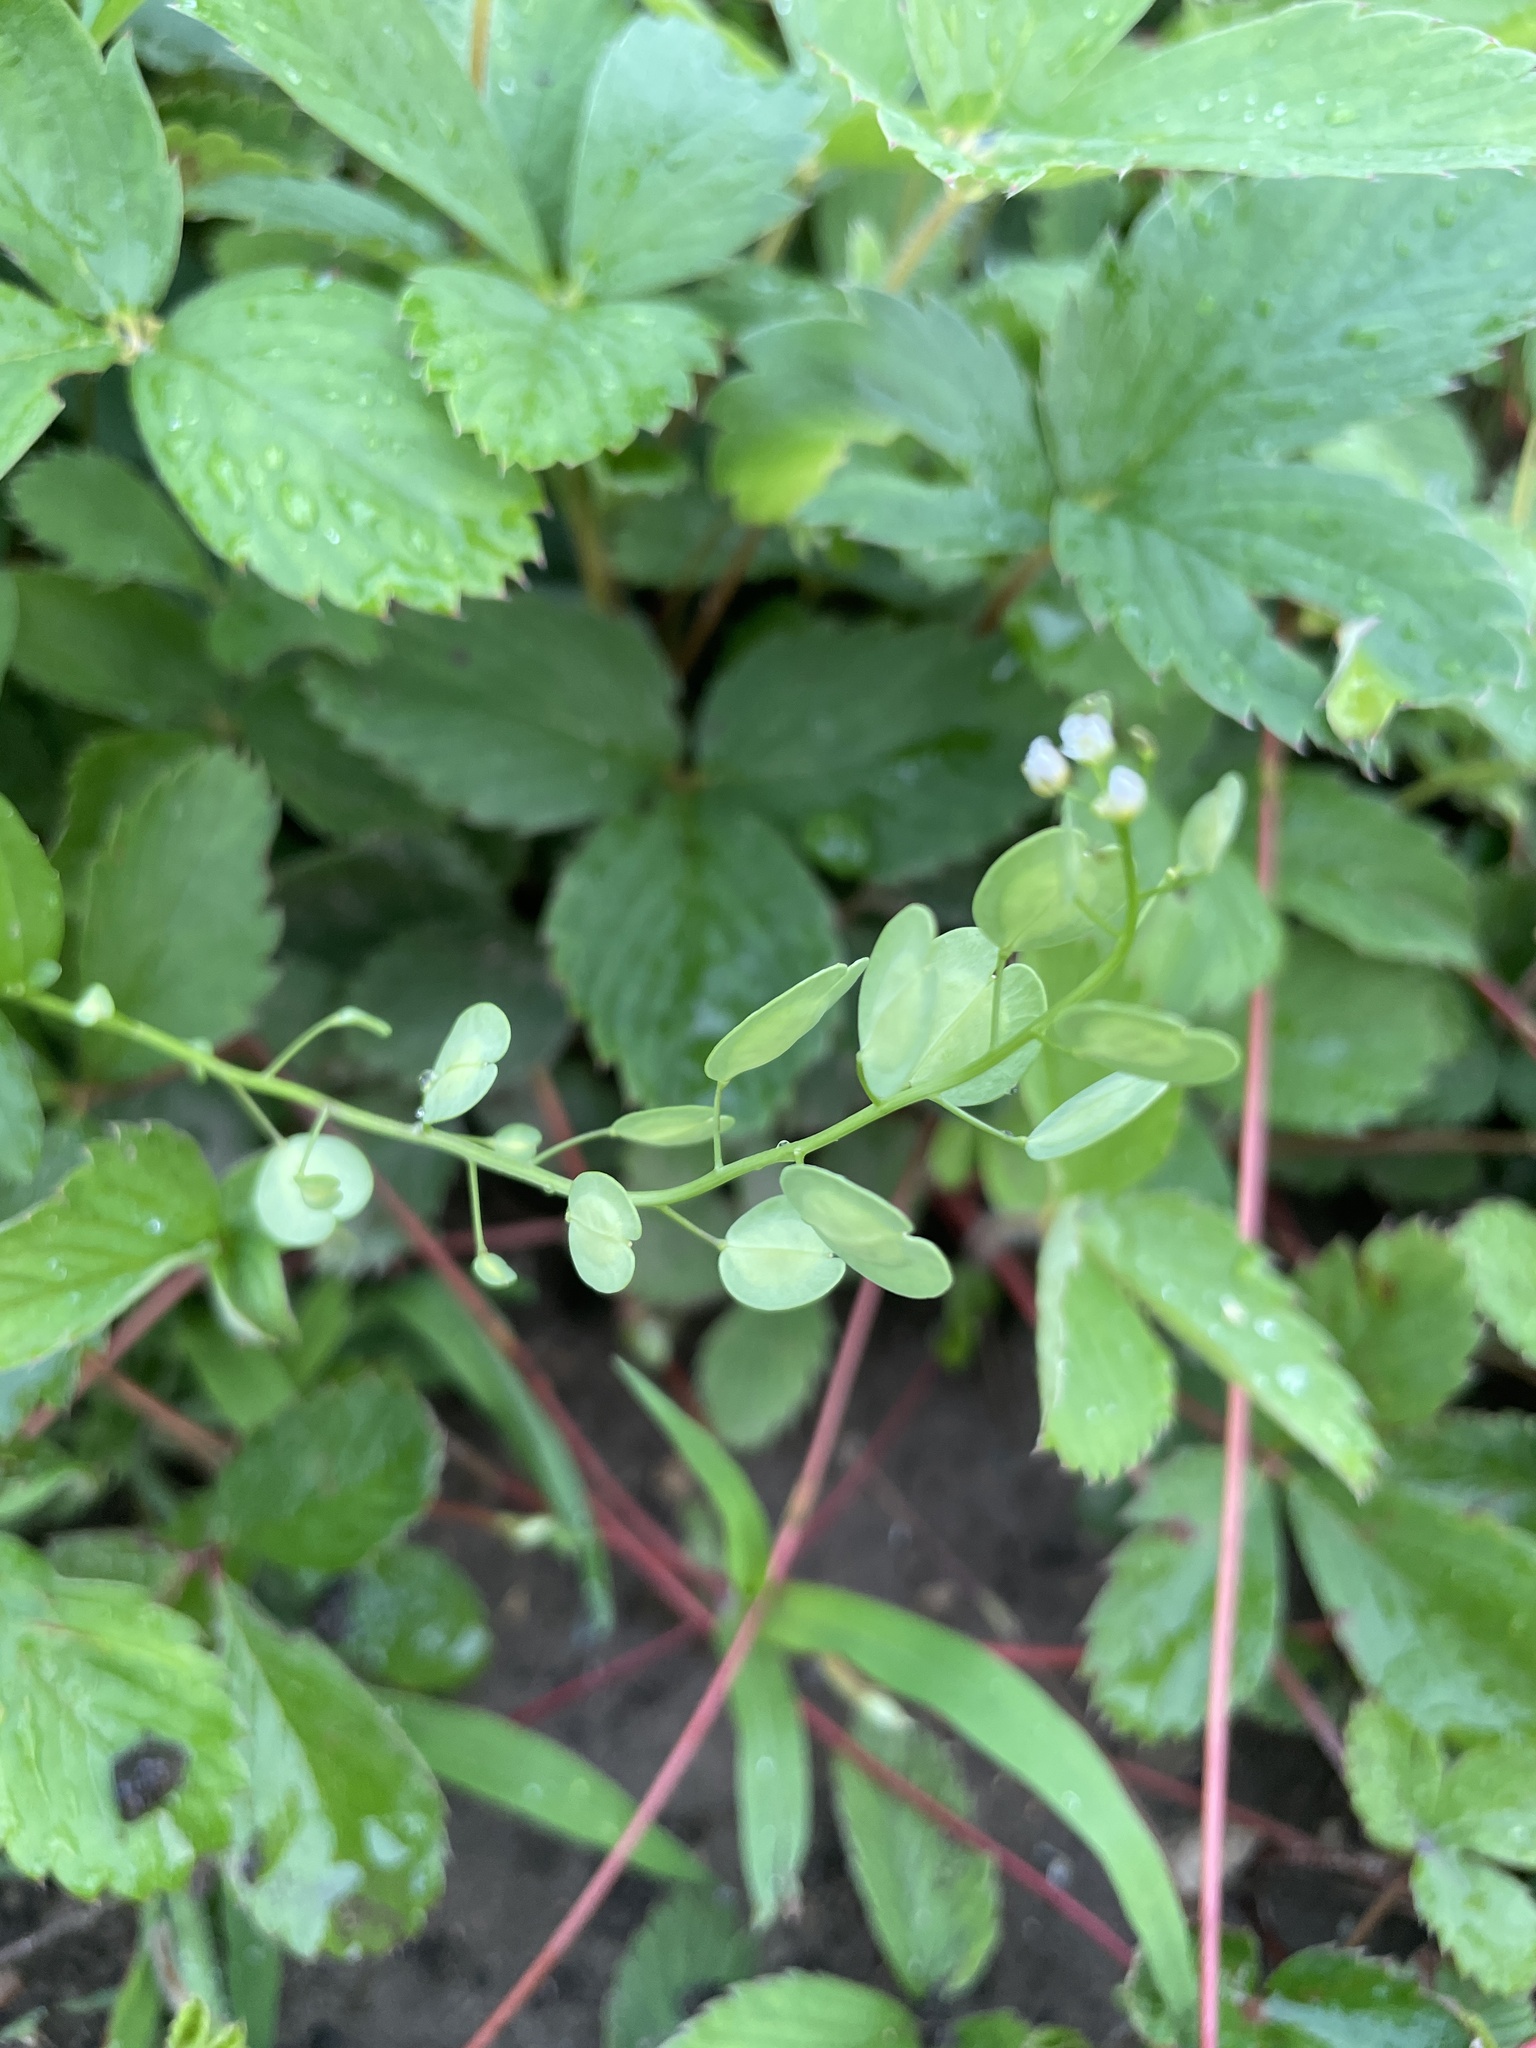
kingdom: Plantae
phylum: Tracheophyta
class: Magnoliopsida
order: Brassicales
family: Brassicaceae
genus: Thlaspi
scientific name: Thlaspi arvense
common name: Field pennycress
